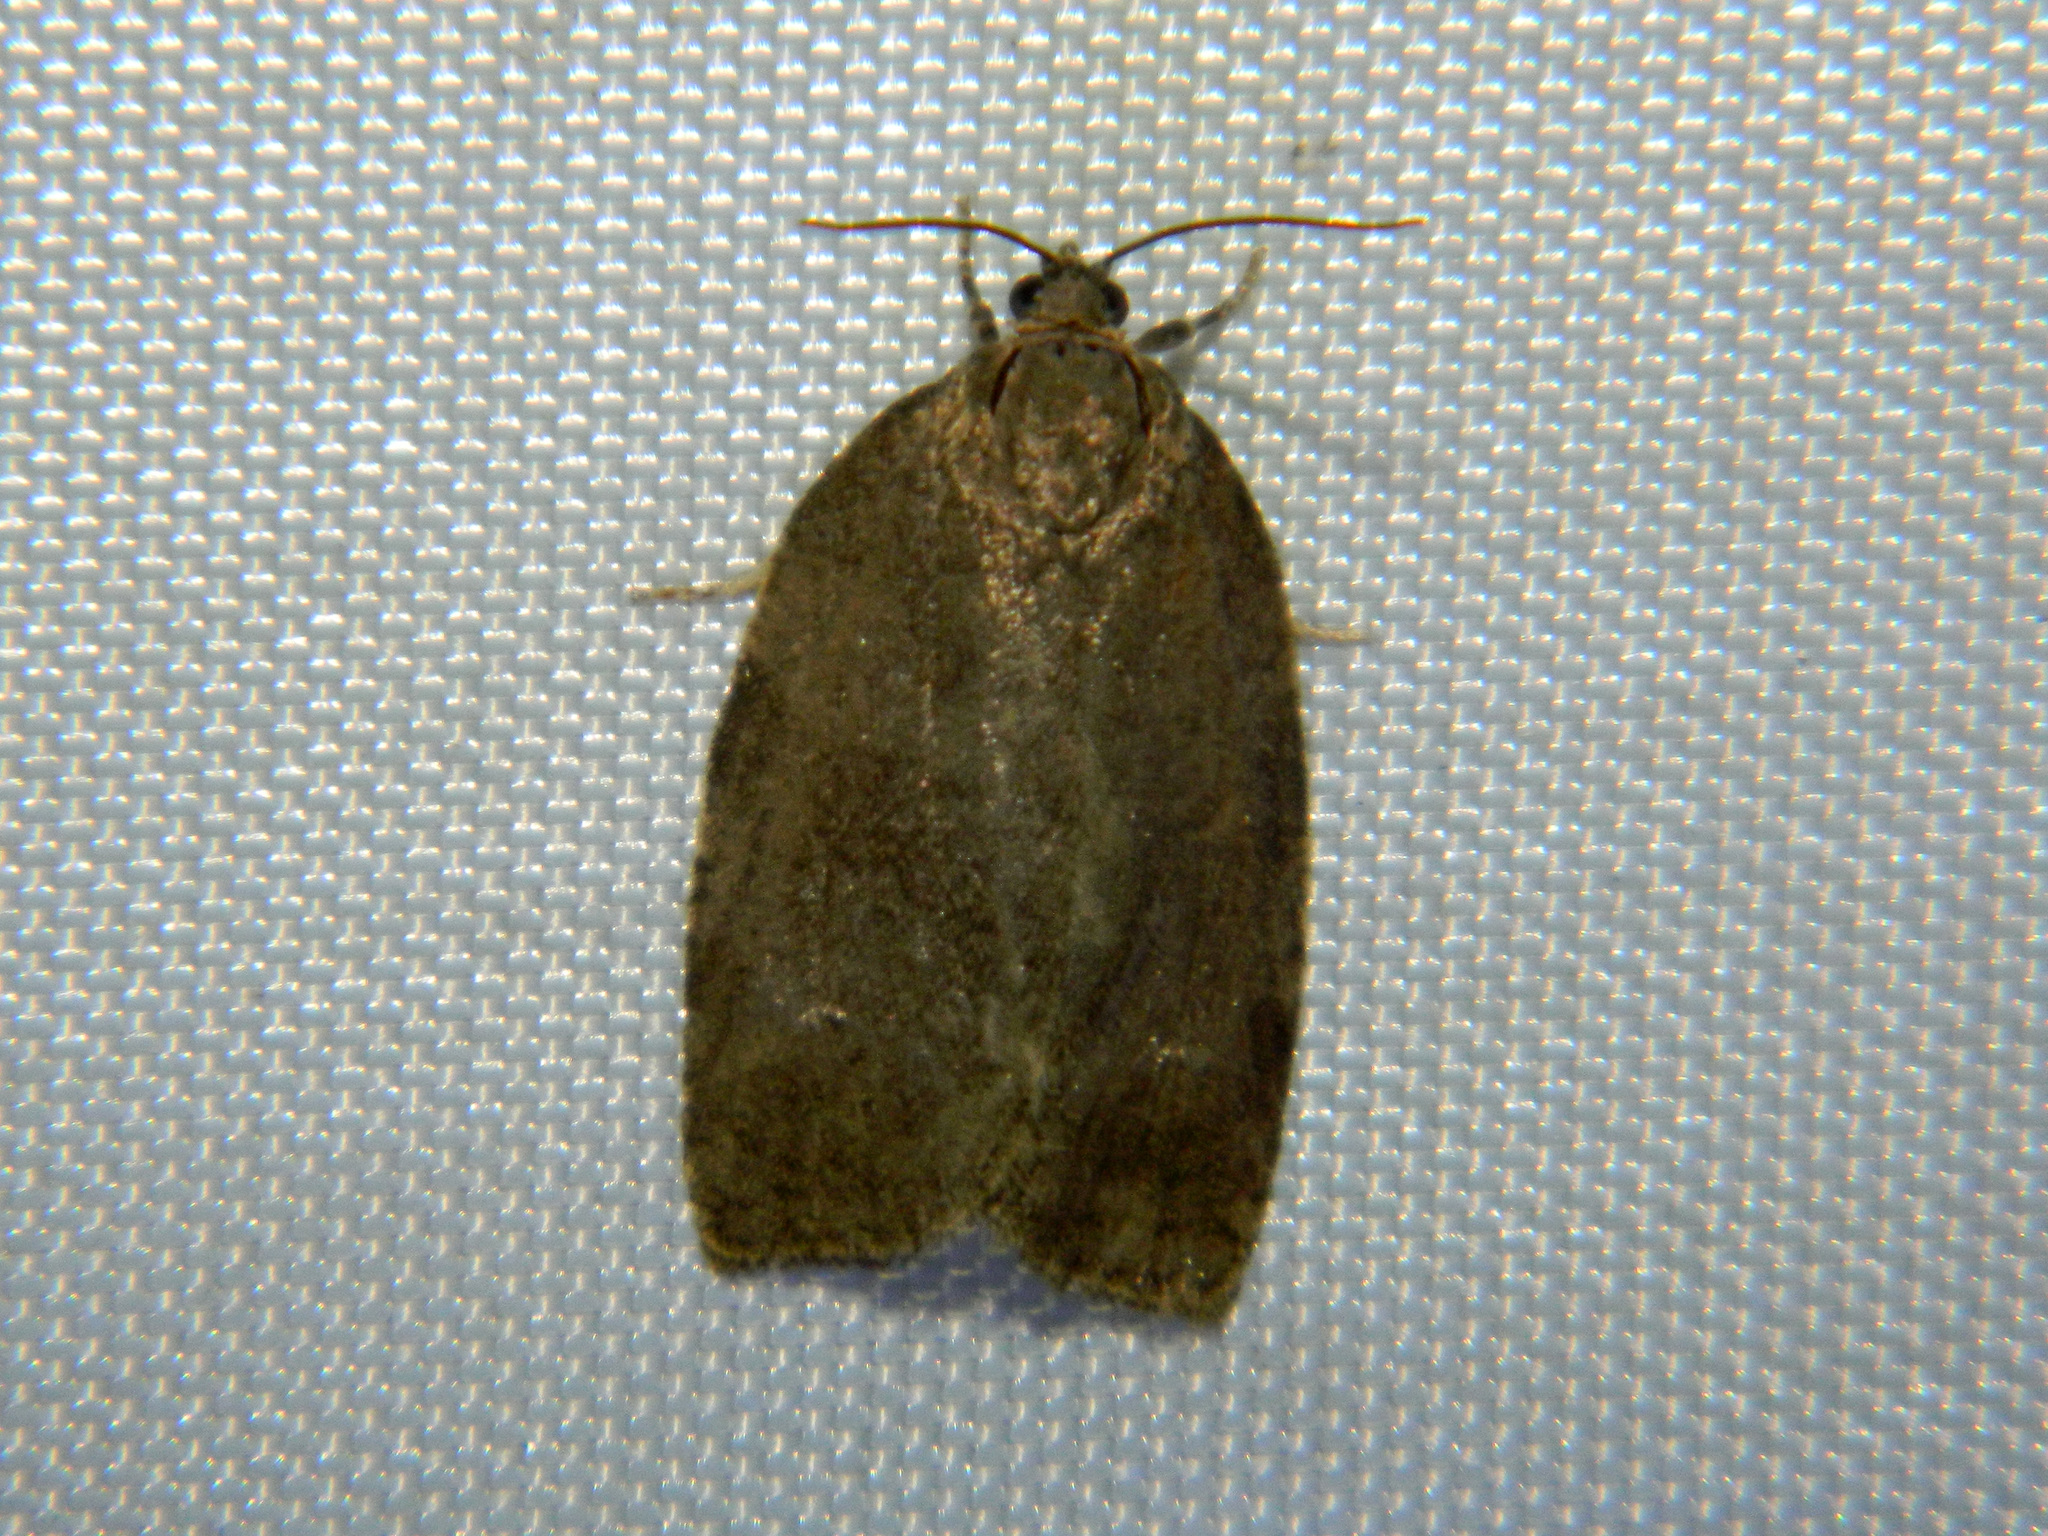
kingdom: Animalia
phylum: Arthropoda
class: Insecta
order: Lepidoptera
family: Tortricidae
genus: Choristoneura
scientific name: Choristoneura conflictana
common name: Large aspen tortrix
